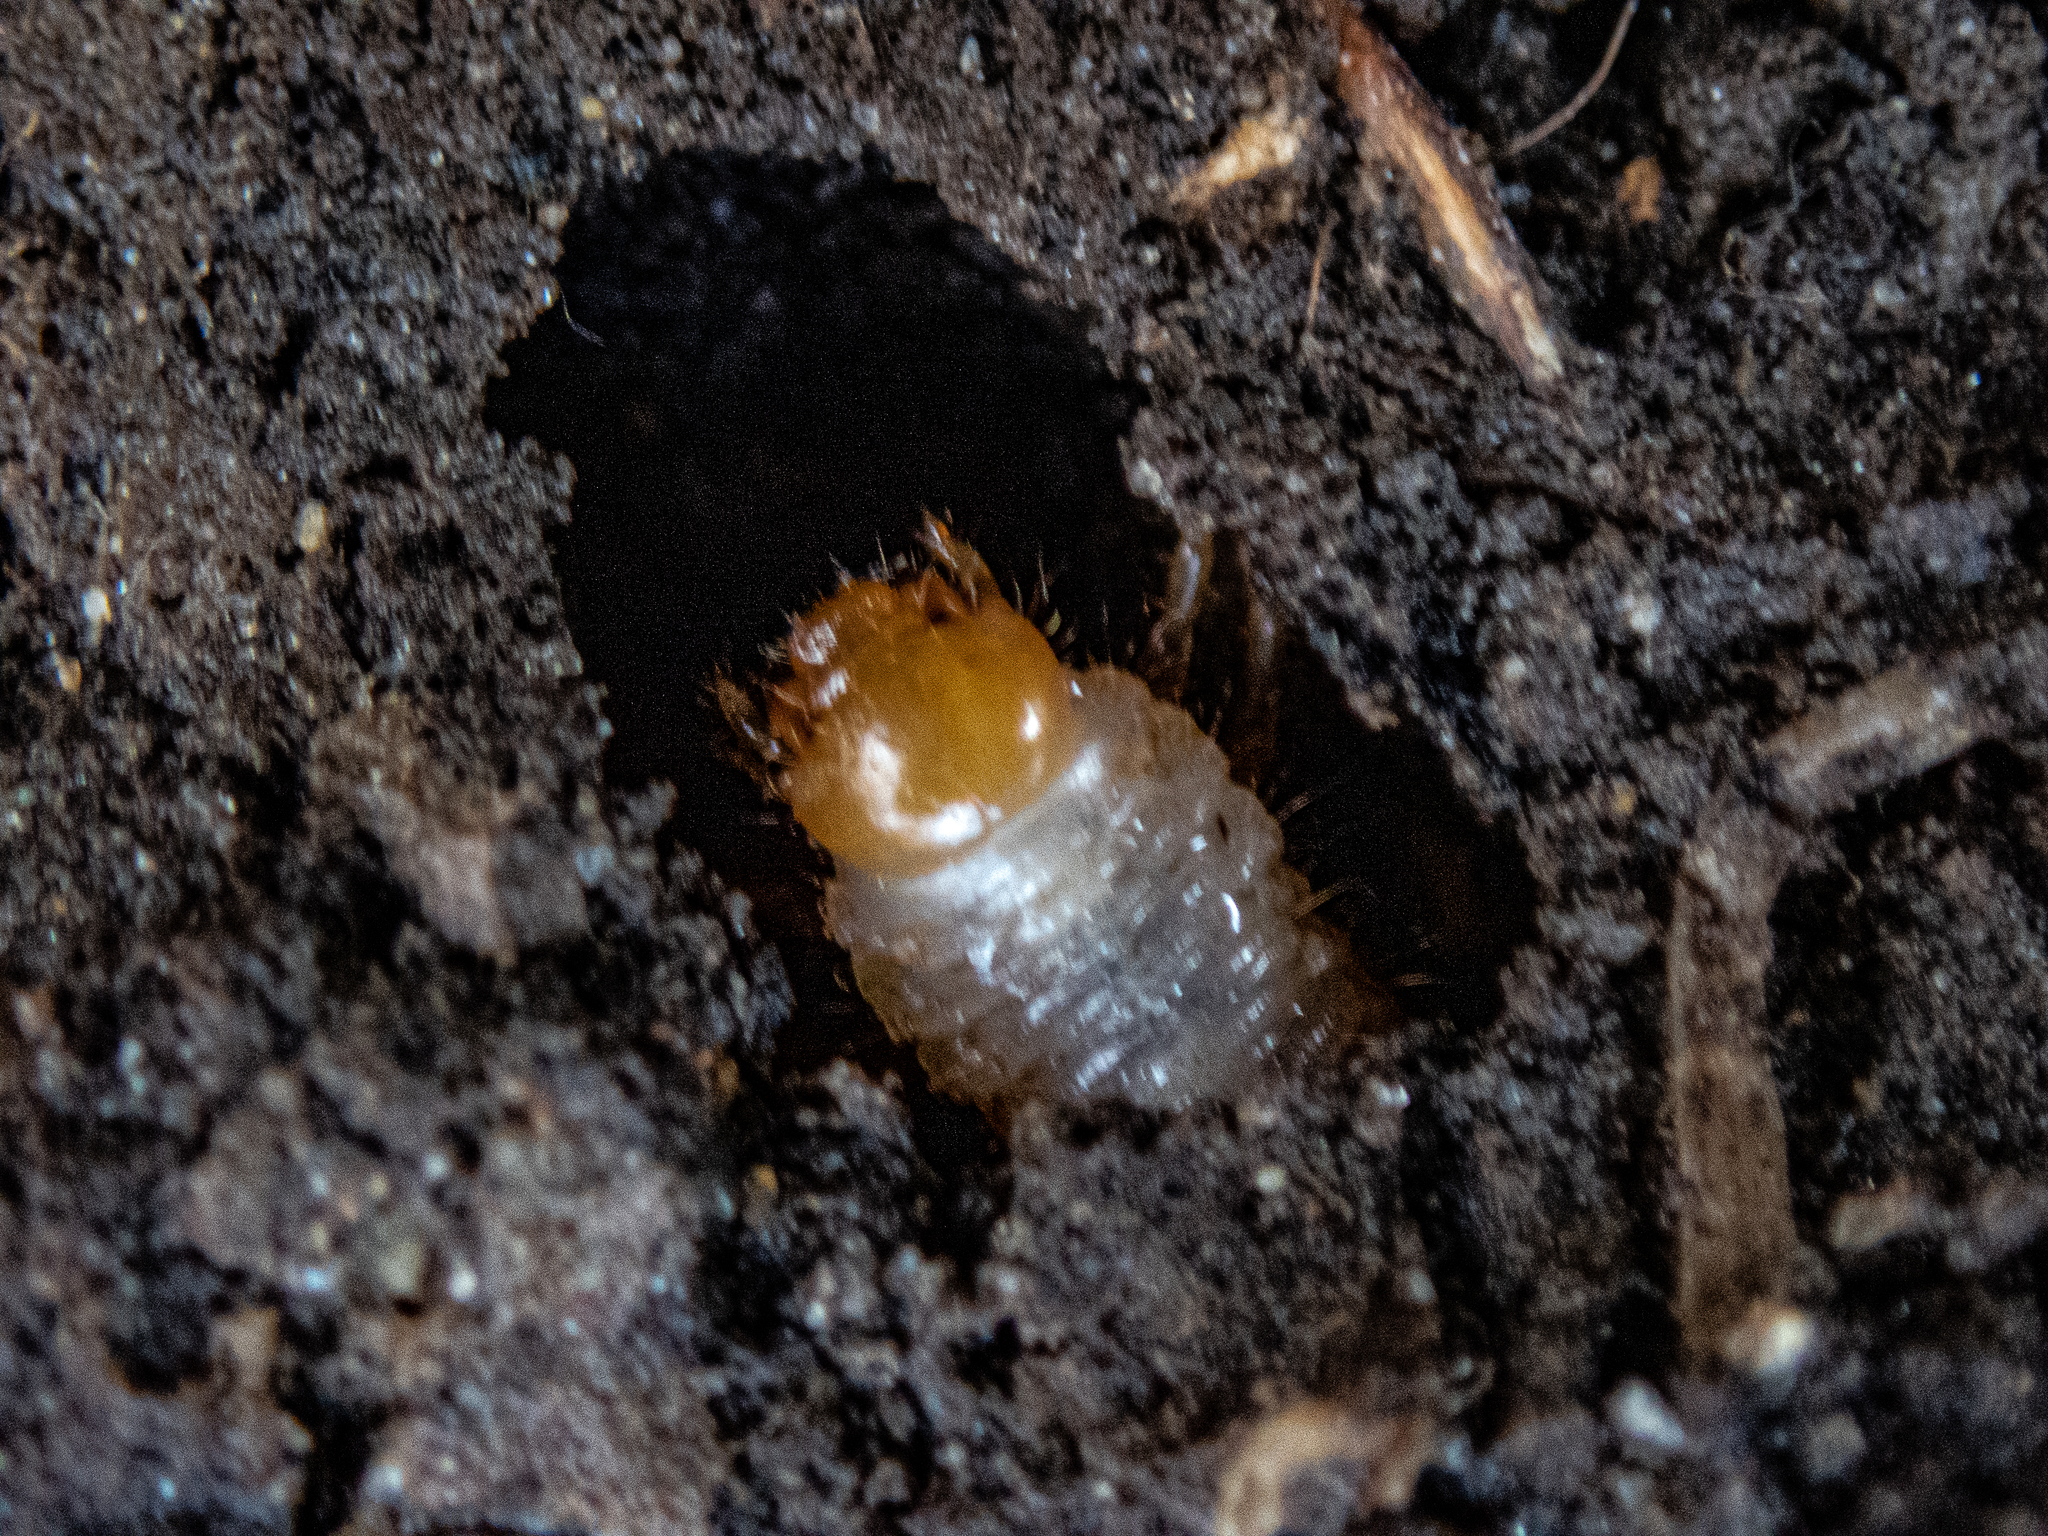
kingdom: Animalia
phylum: Arthropoda
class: Insecta
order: Coleoptera
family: Scarabaeidae
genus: Popillia
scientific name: Popillia japonica
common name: Japanese beetle
